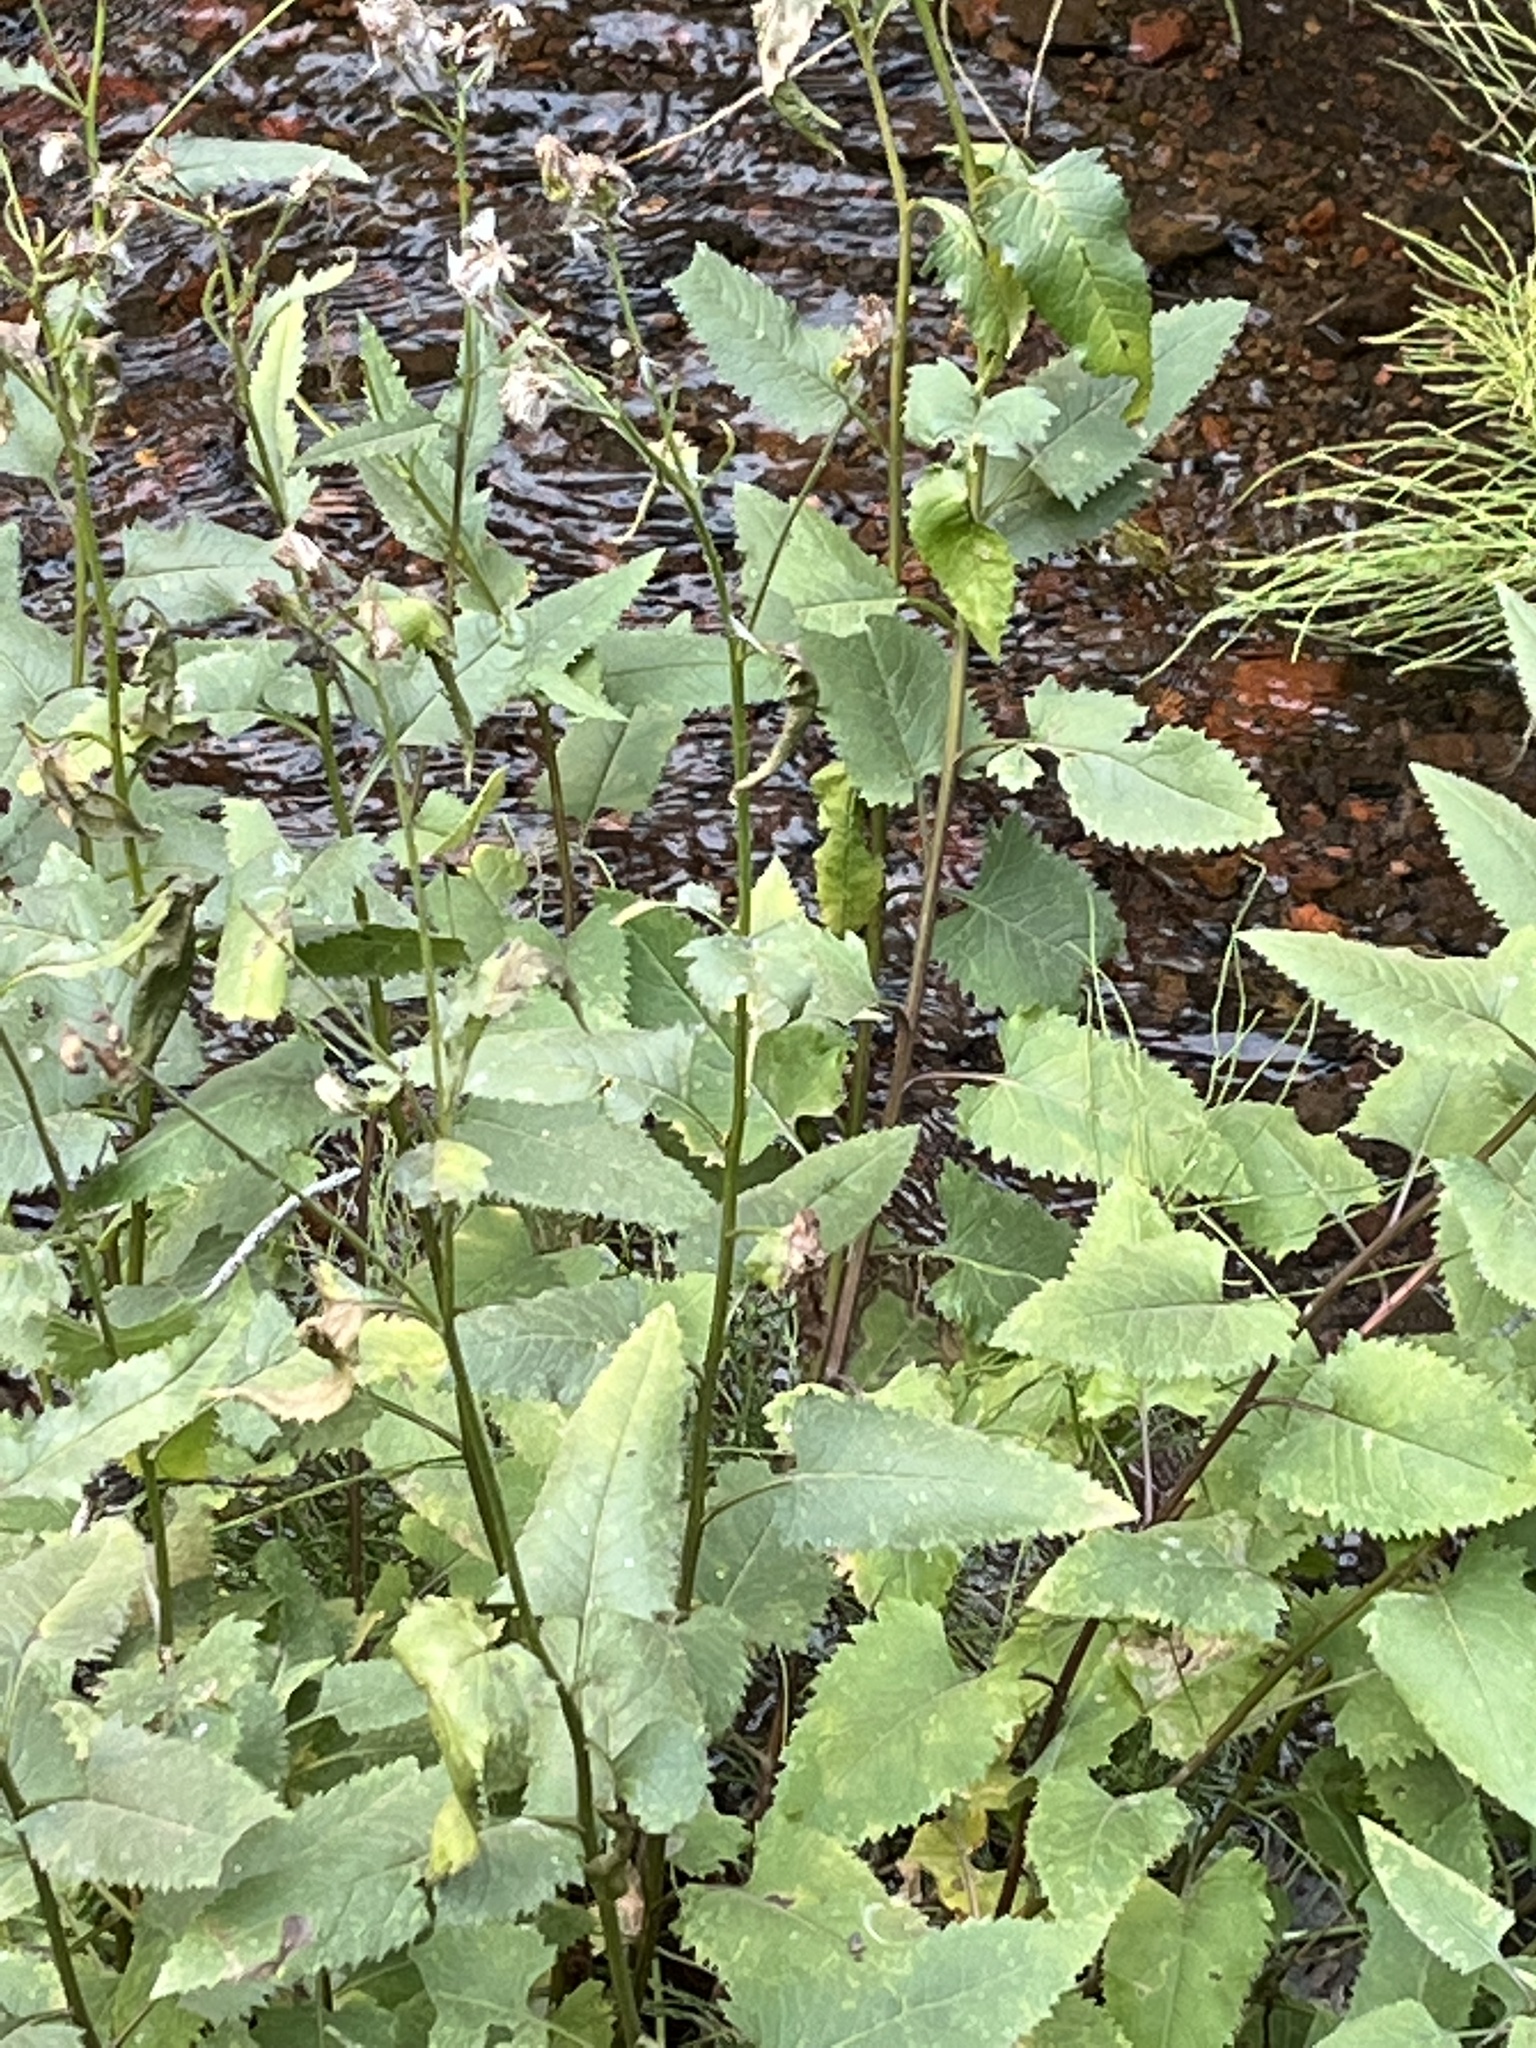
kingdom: Plantae
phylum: Tracheophyta
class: Magnoliopsida
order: Asterales
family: Asteraceae
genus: Senecio
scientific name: Senecio triangularis
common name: Arrowleaf butterweed
